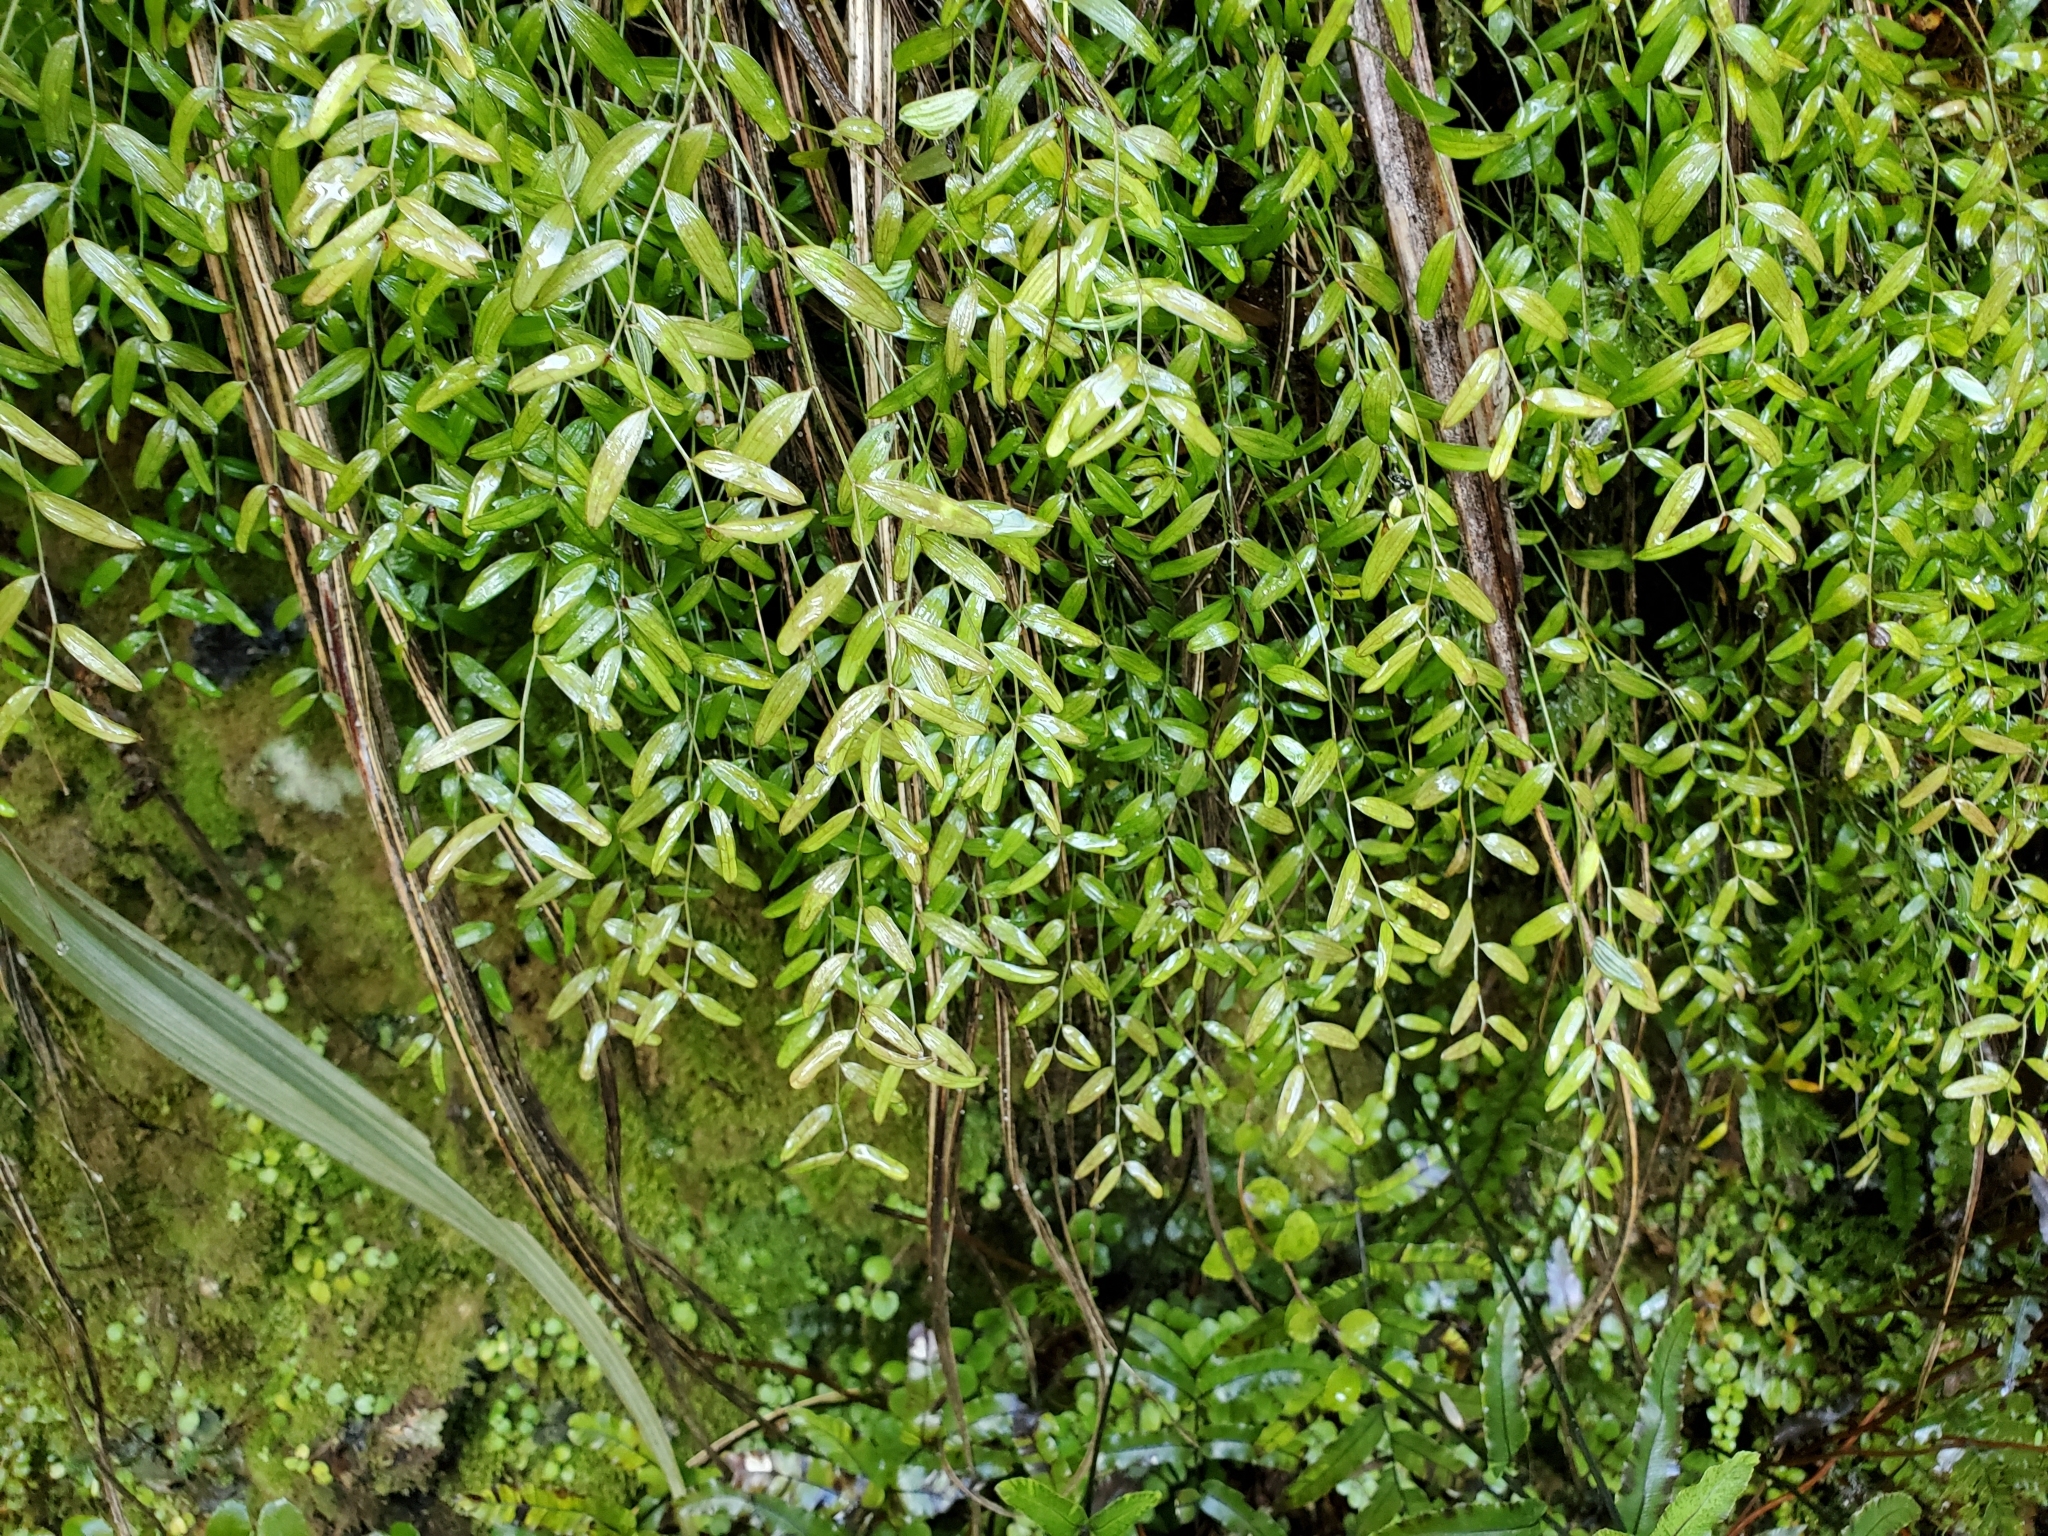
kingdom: Plantae
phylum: Tracheophyta
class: Liliopsida
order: Liliales
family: Alstroemeriaceae
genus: Luzuriaga
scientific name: Luzuriaga parviflora
